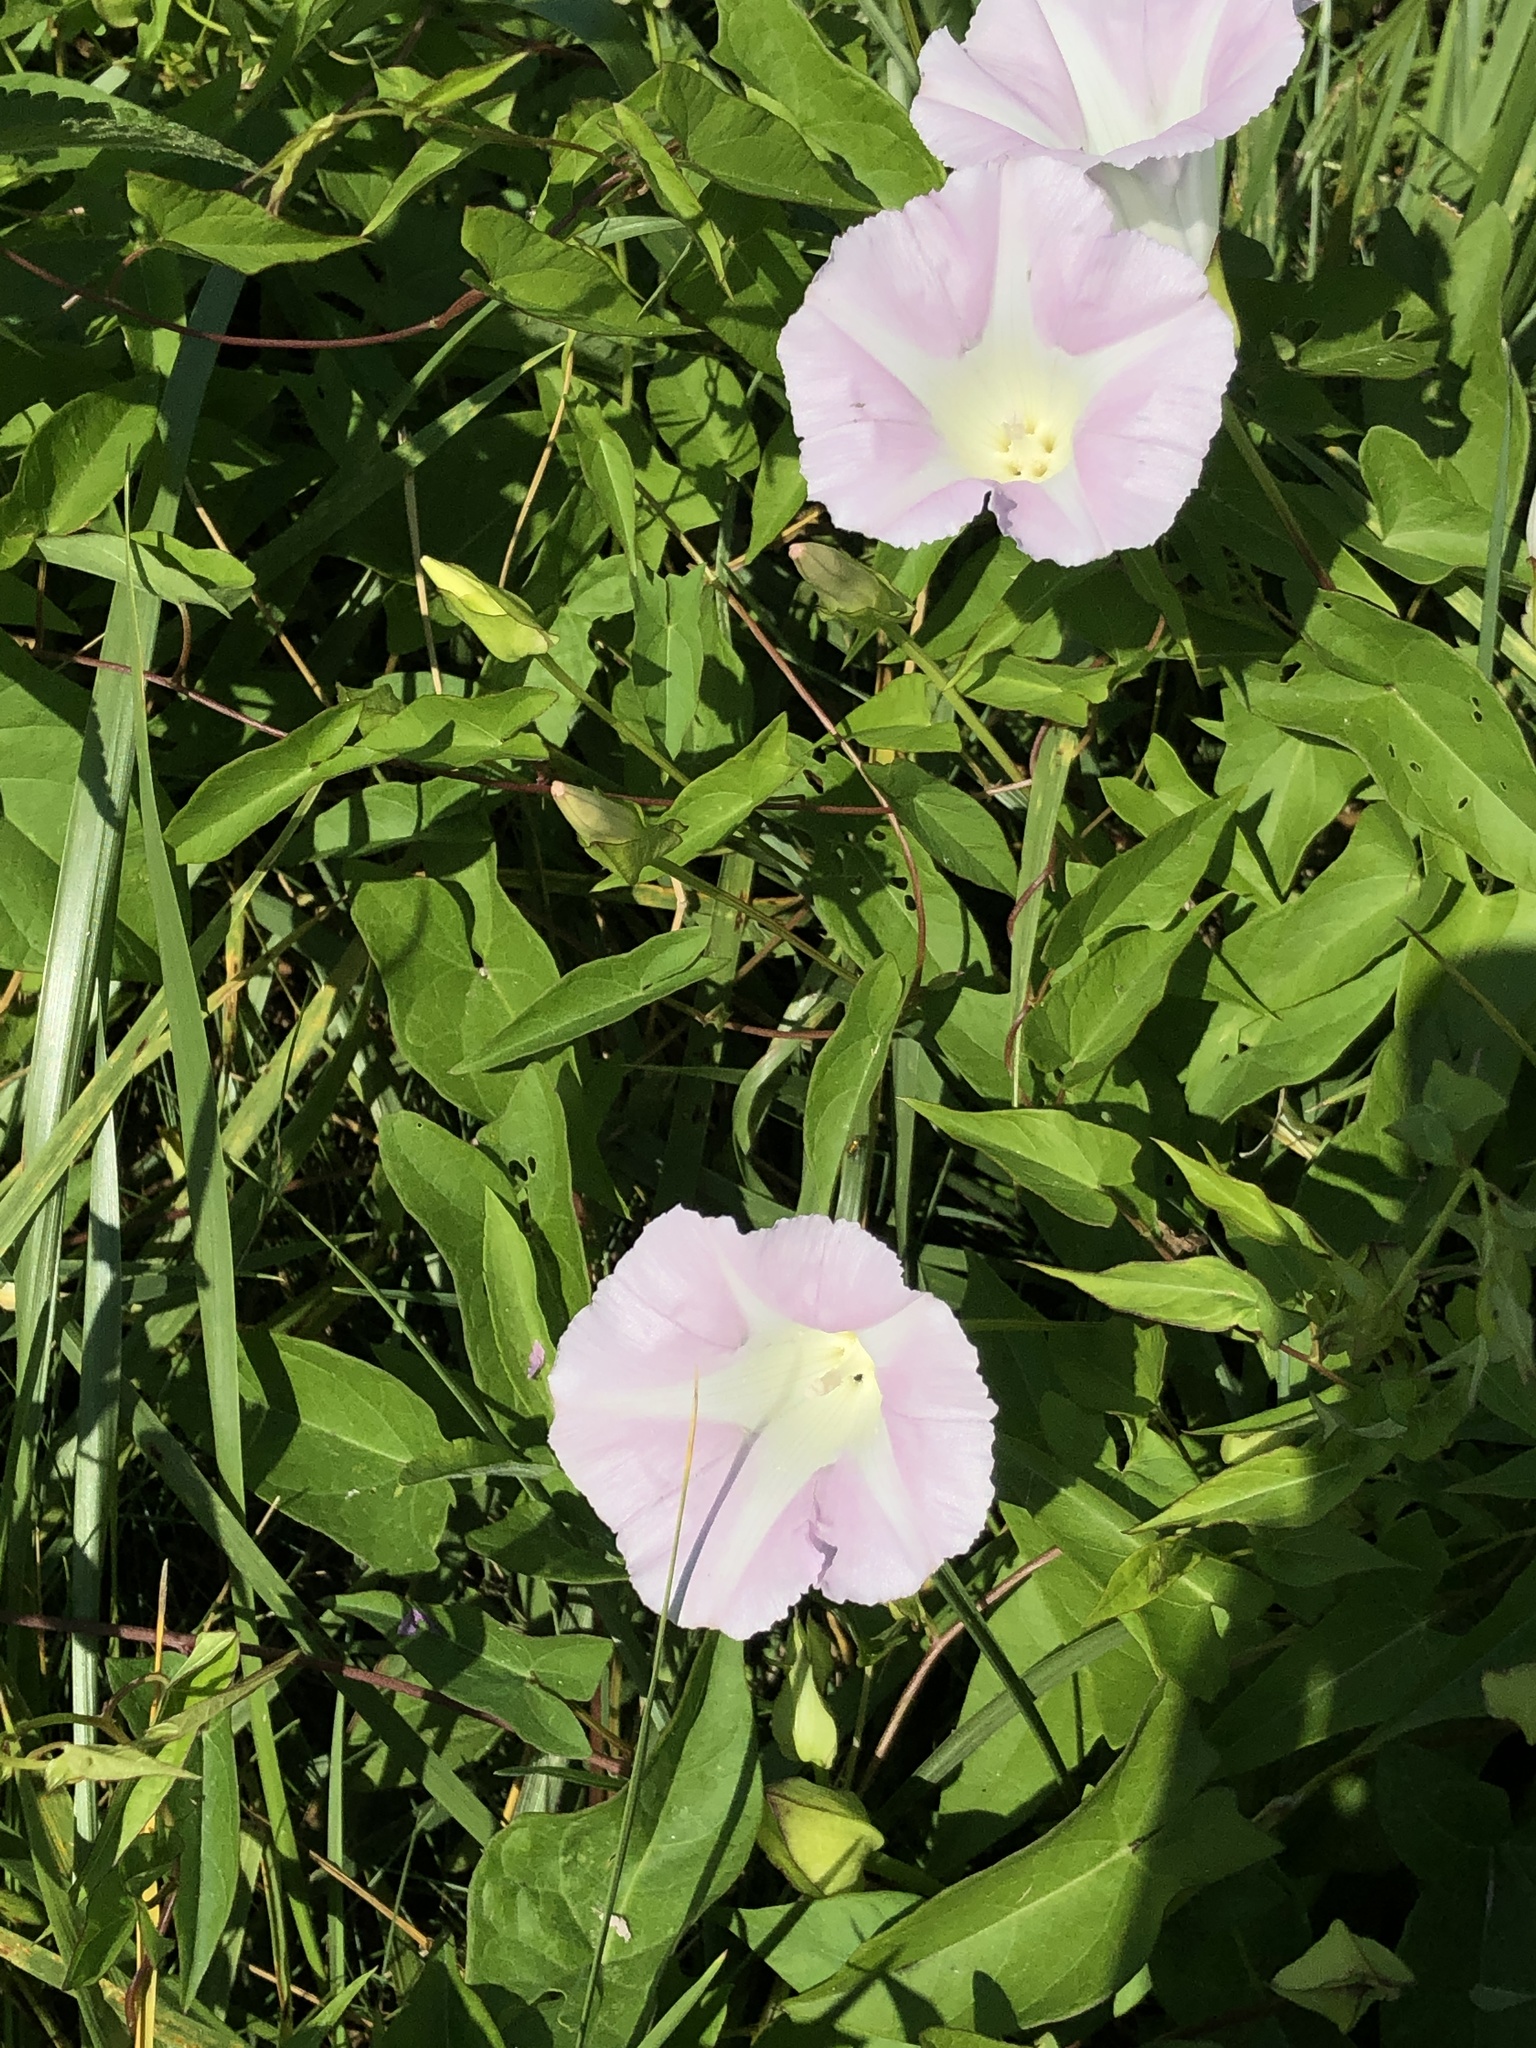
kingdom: Plantae
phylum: Tracheophyta
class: Magnoliopsida
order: Solanales
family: Convolvulaceae
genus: Calystegia
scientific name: Calystegia sepium
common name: Hedge bindweed
